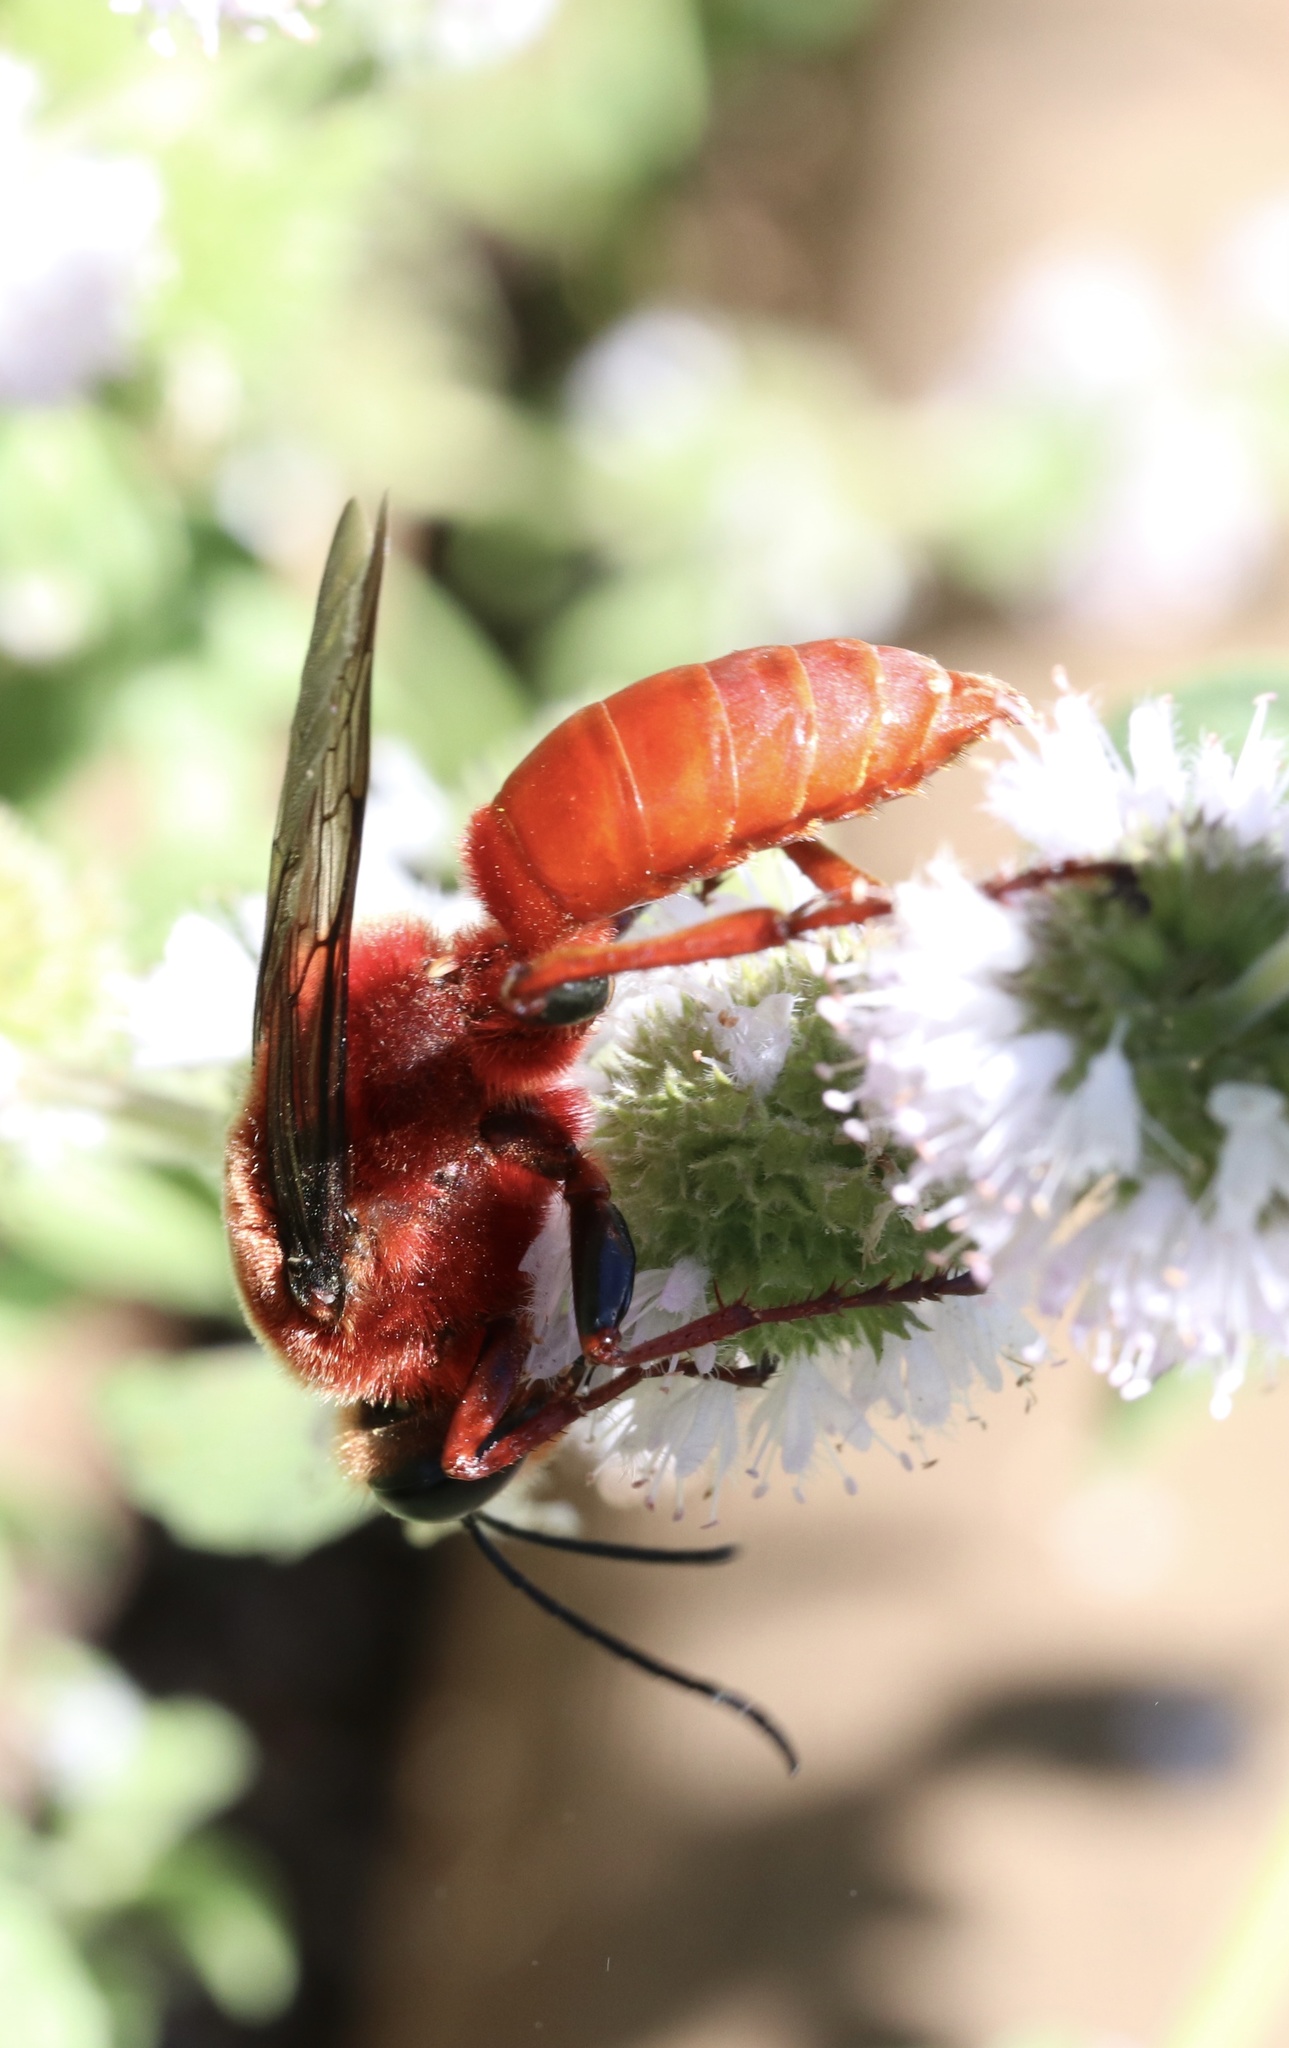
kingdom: Animalia
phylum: Arthropoda
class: Insecta
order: Hymenoptera
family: Sphecidae
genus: Sphex
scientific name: Sphex latreillei
